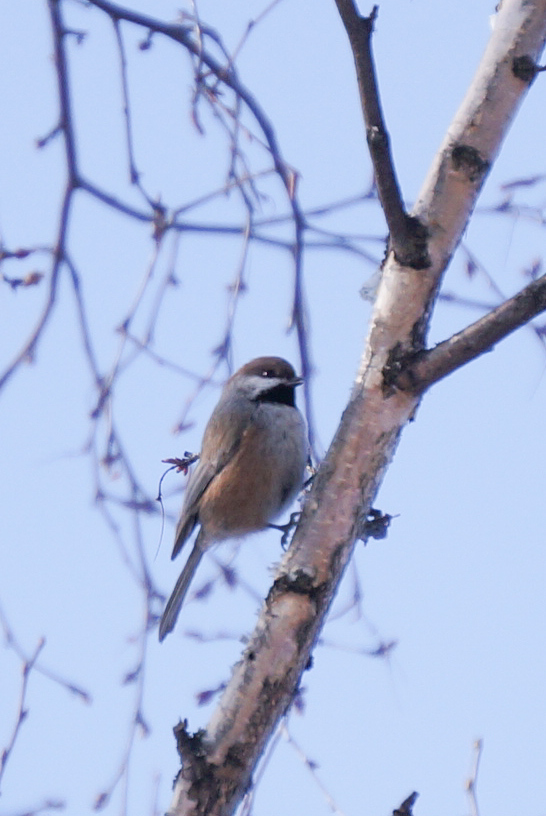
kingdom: Animalia
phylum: Chordata
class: Aves
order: Passeriformes
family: Paridae
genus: Poecile
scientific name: Poecile hudsonicus
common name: Boreal chickadee
